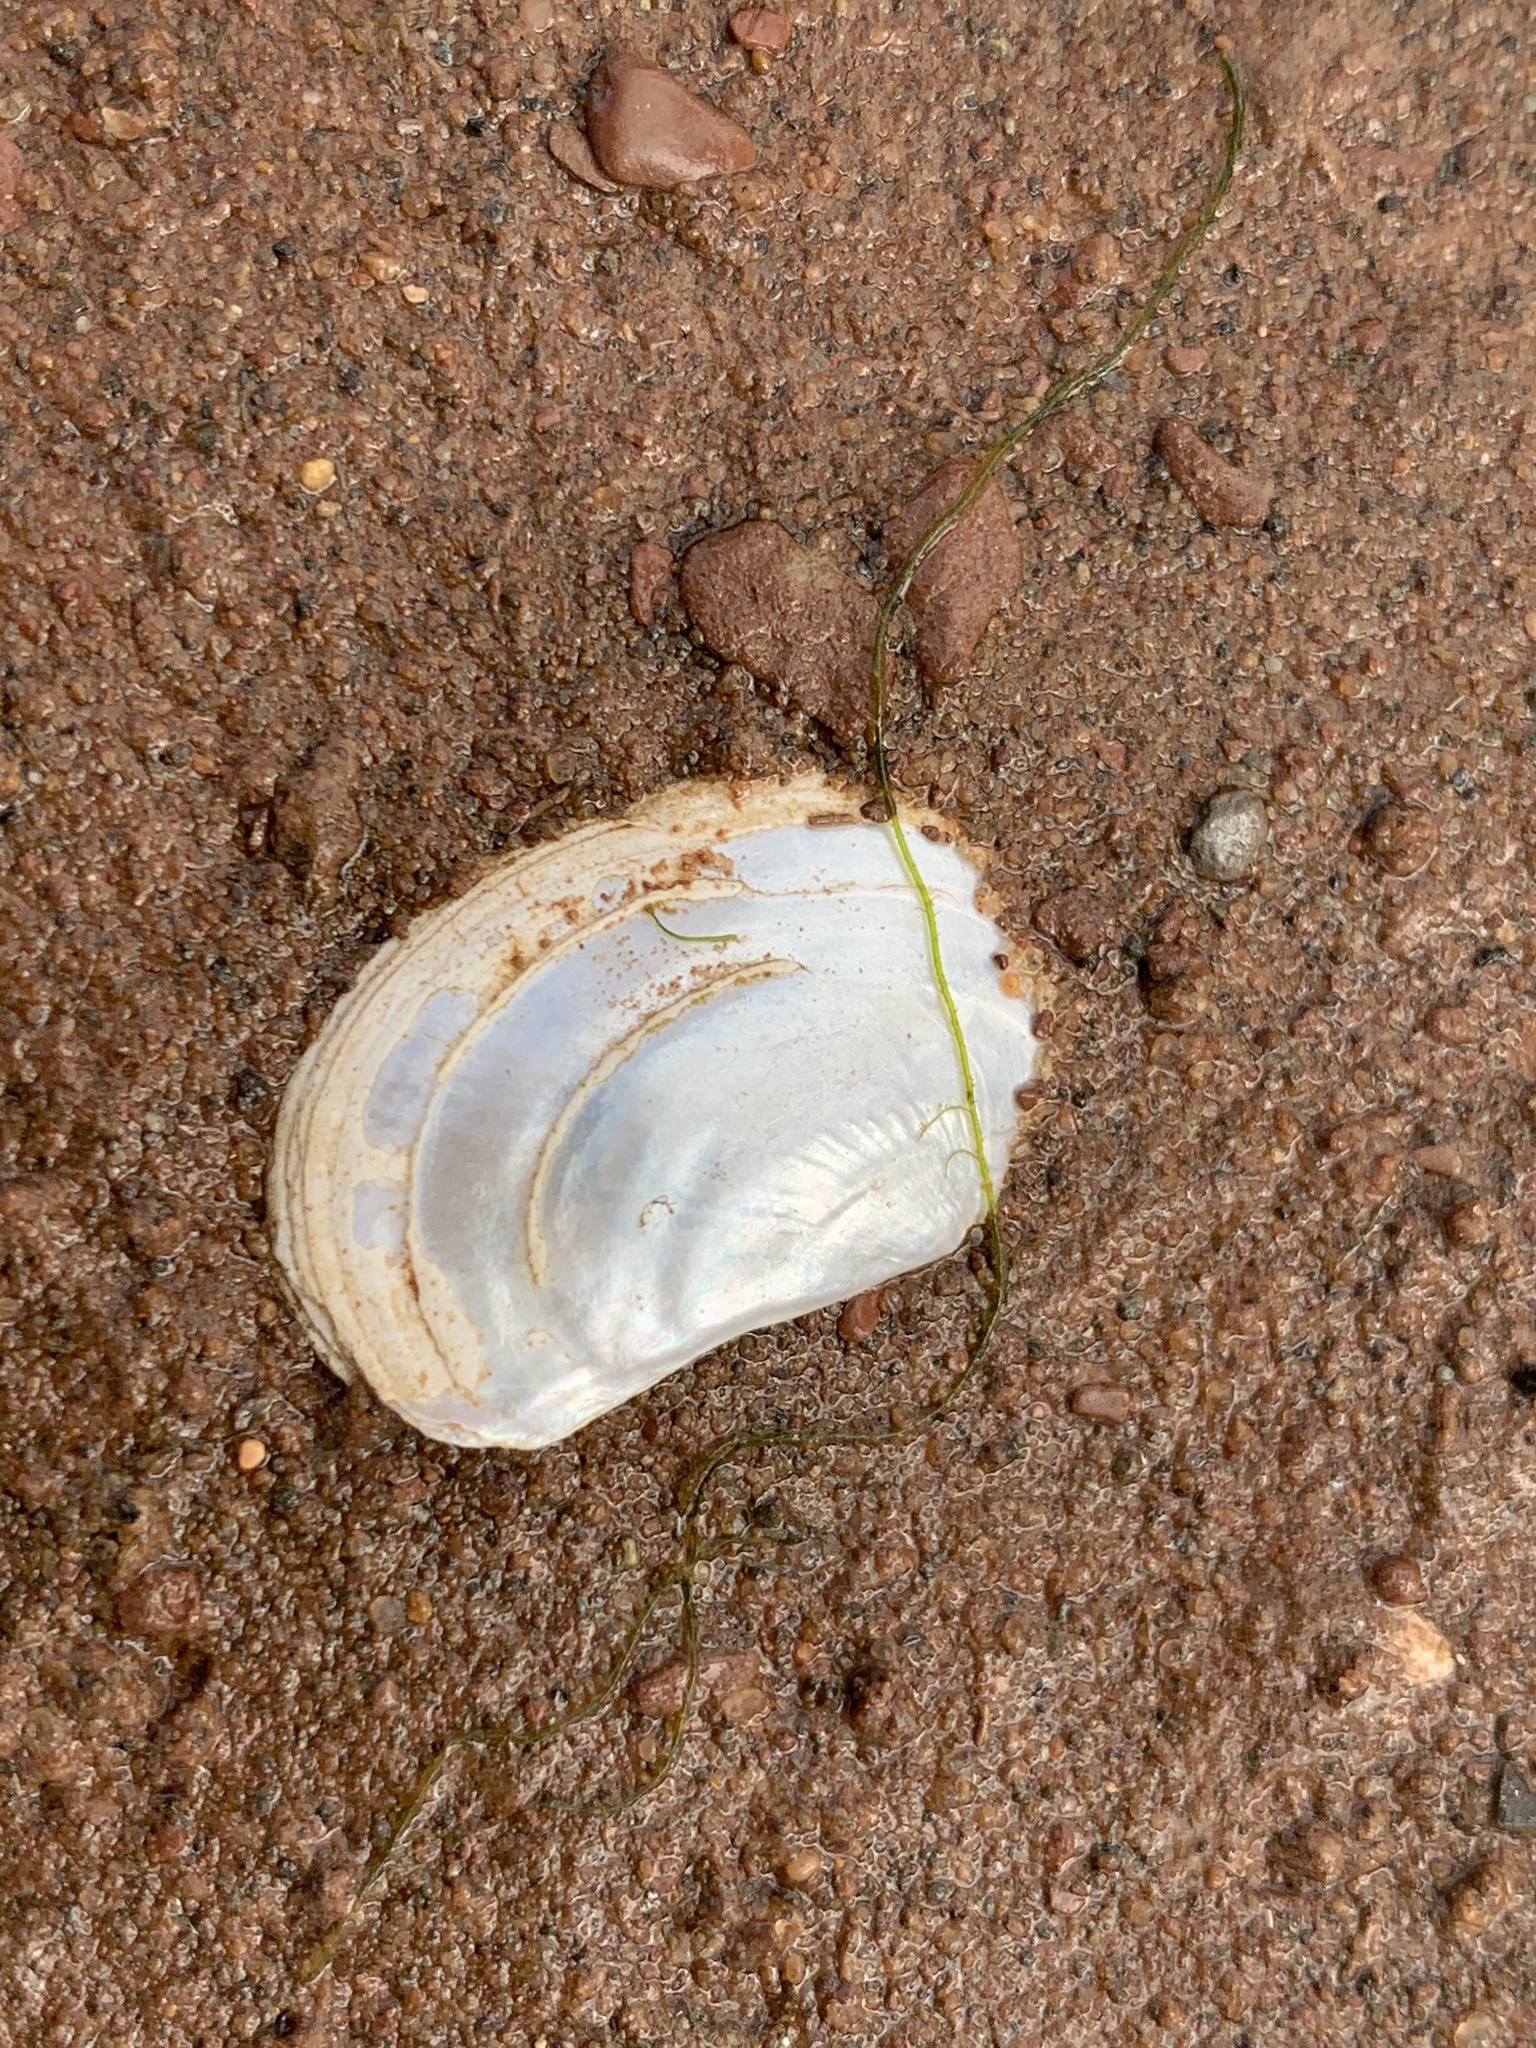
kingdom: Animalia
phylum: Mollusca
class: Bivalvia
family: Pandoridae
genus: Pandora
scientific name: Pandora gouldiana
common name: Rounded pandora
